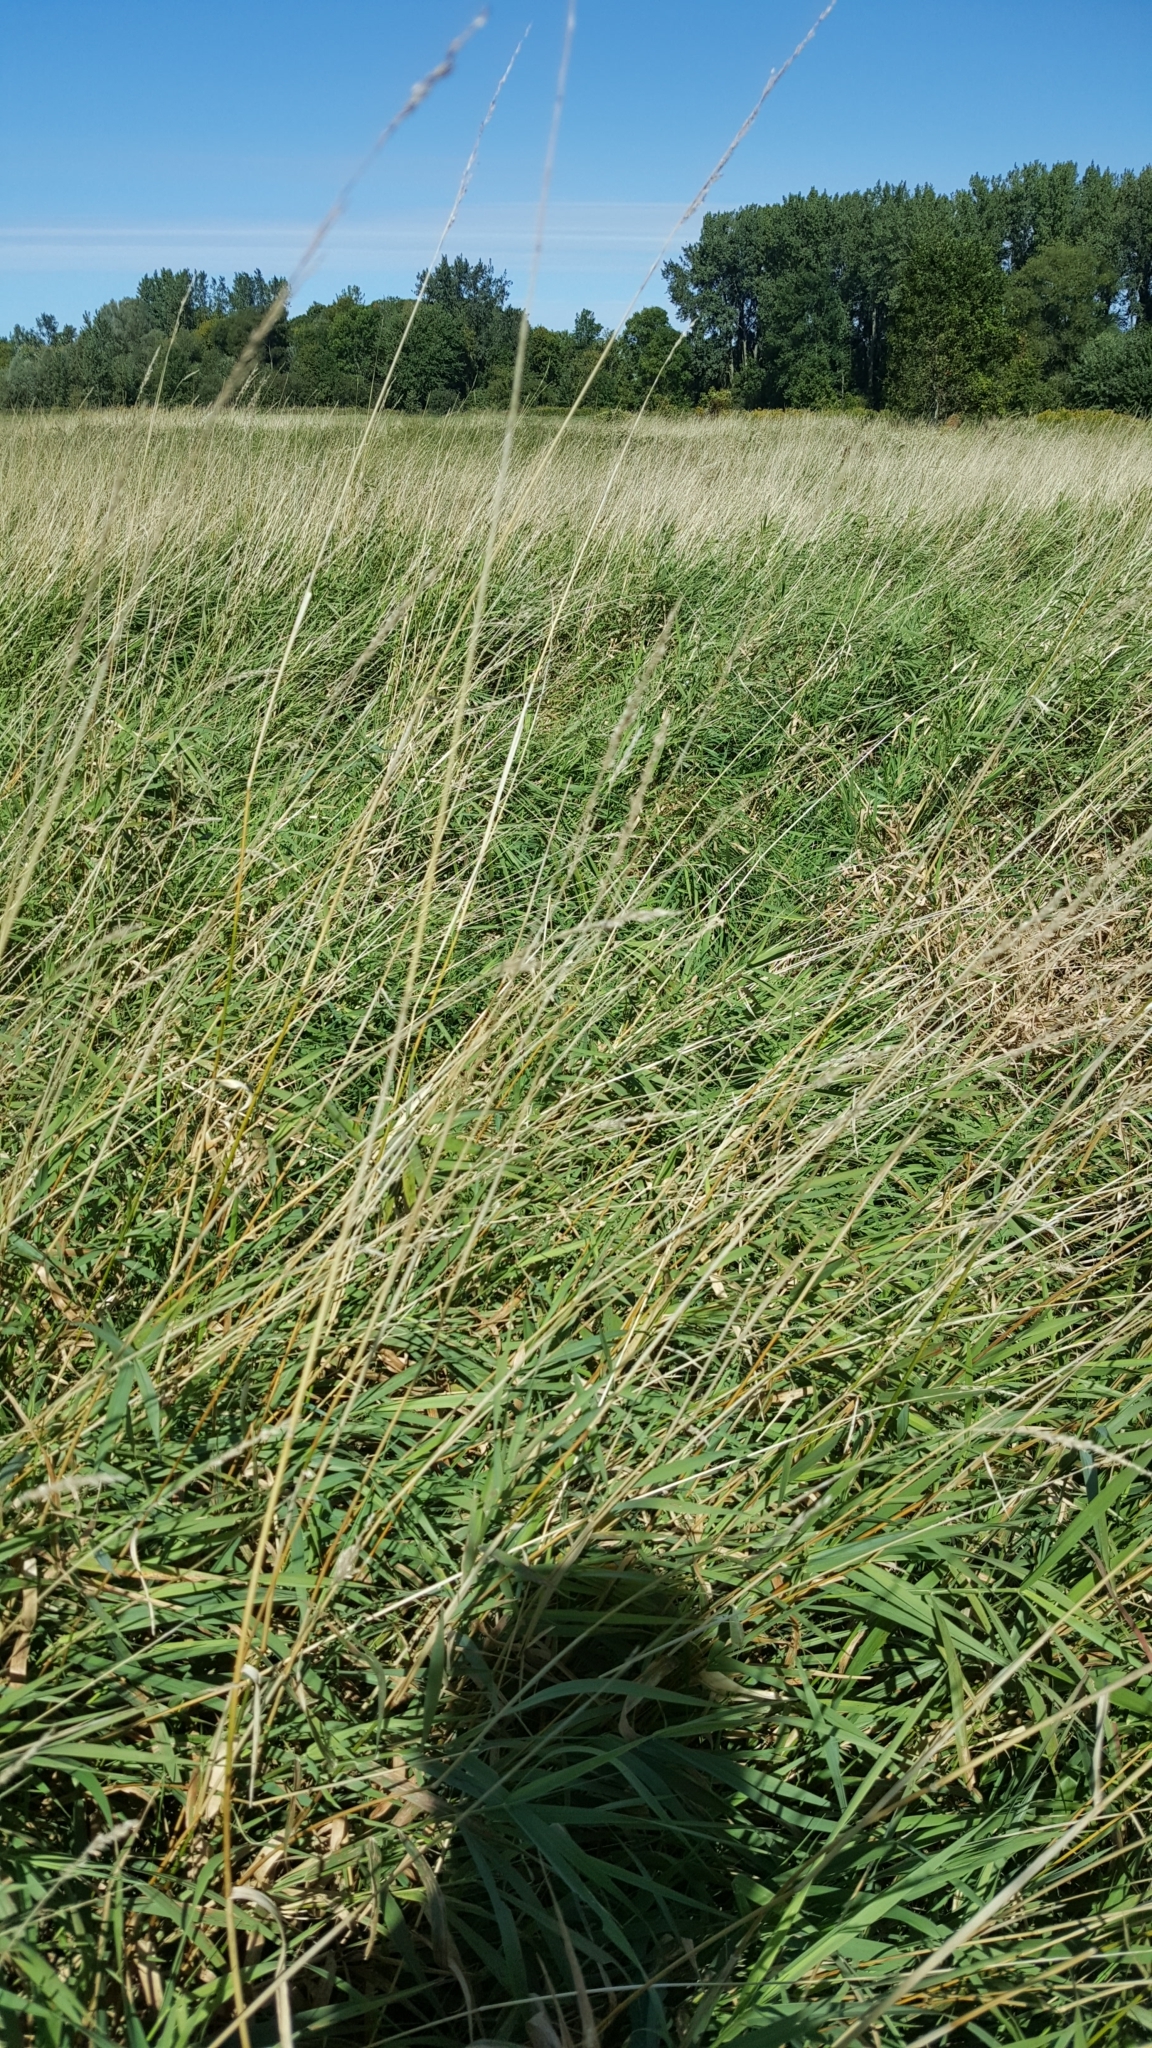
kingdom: Plantae
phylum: Tracheophyta
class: Liliopsida
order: Poales
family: Poaceae
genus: Phalaris
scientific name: Phalaris arundinacea
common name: Reed canary-grass
